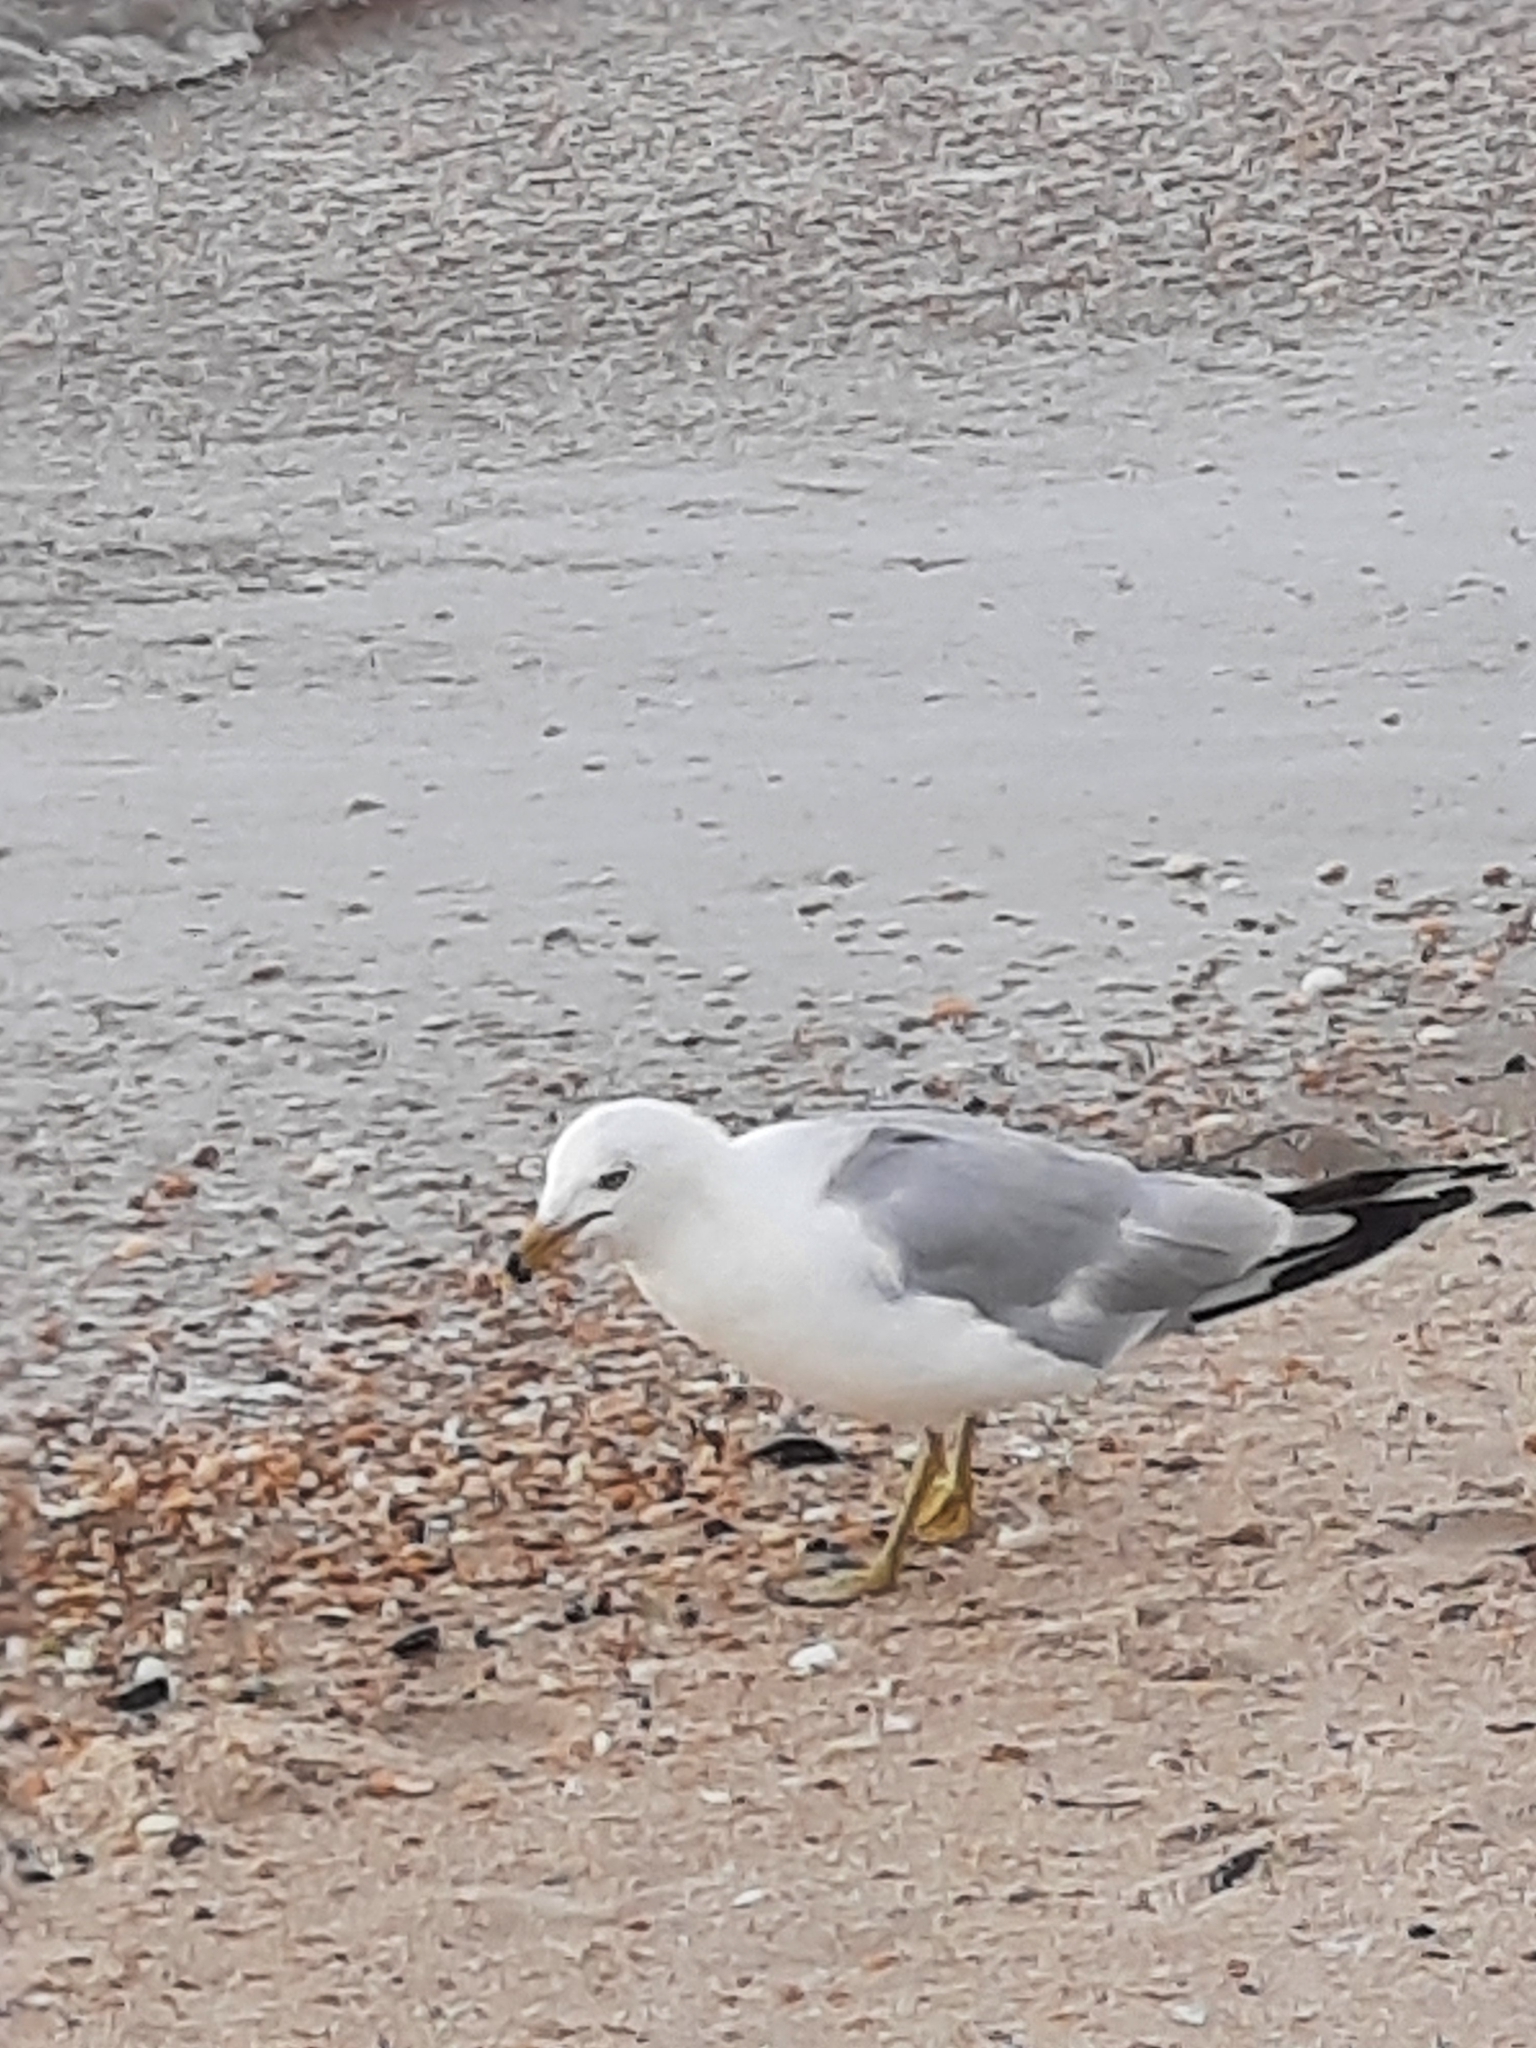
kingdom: Animalia
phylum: Chordata
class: Aves
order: Charadriiformes
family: Laridae
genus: Larus
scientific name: Larus delawarensis
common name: Ring-billed gull
